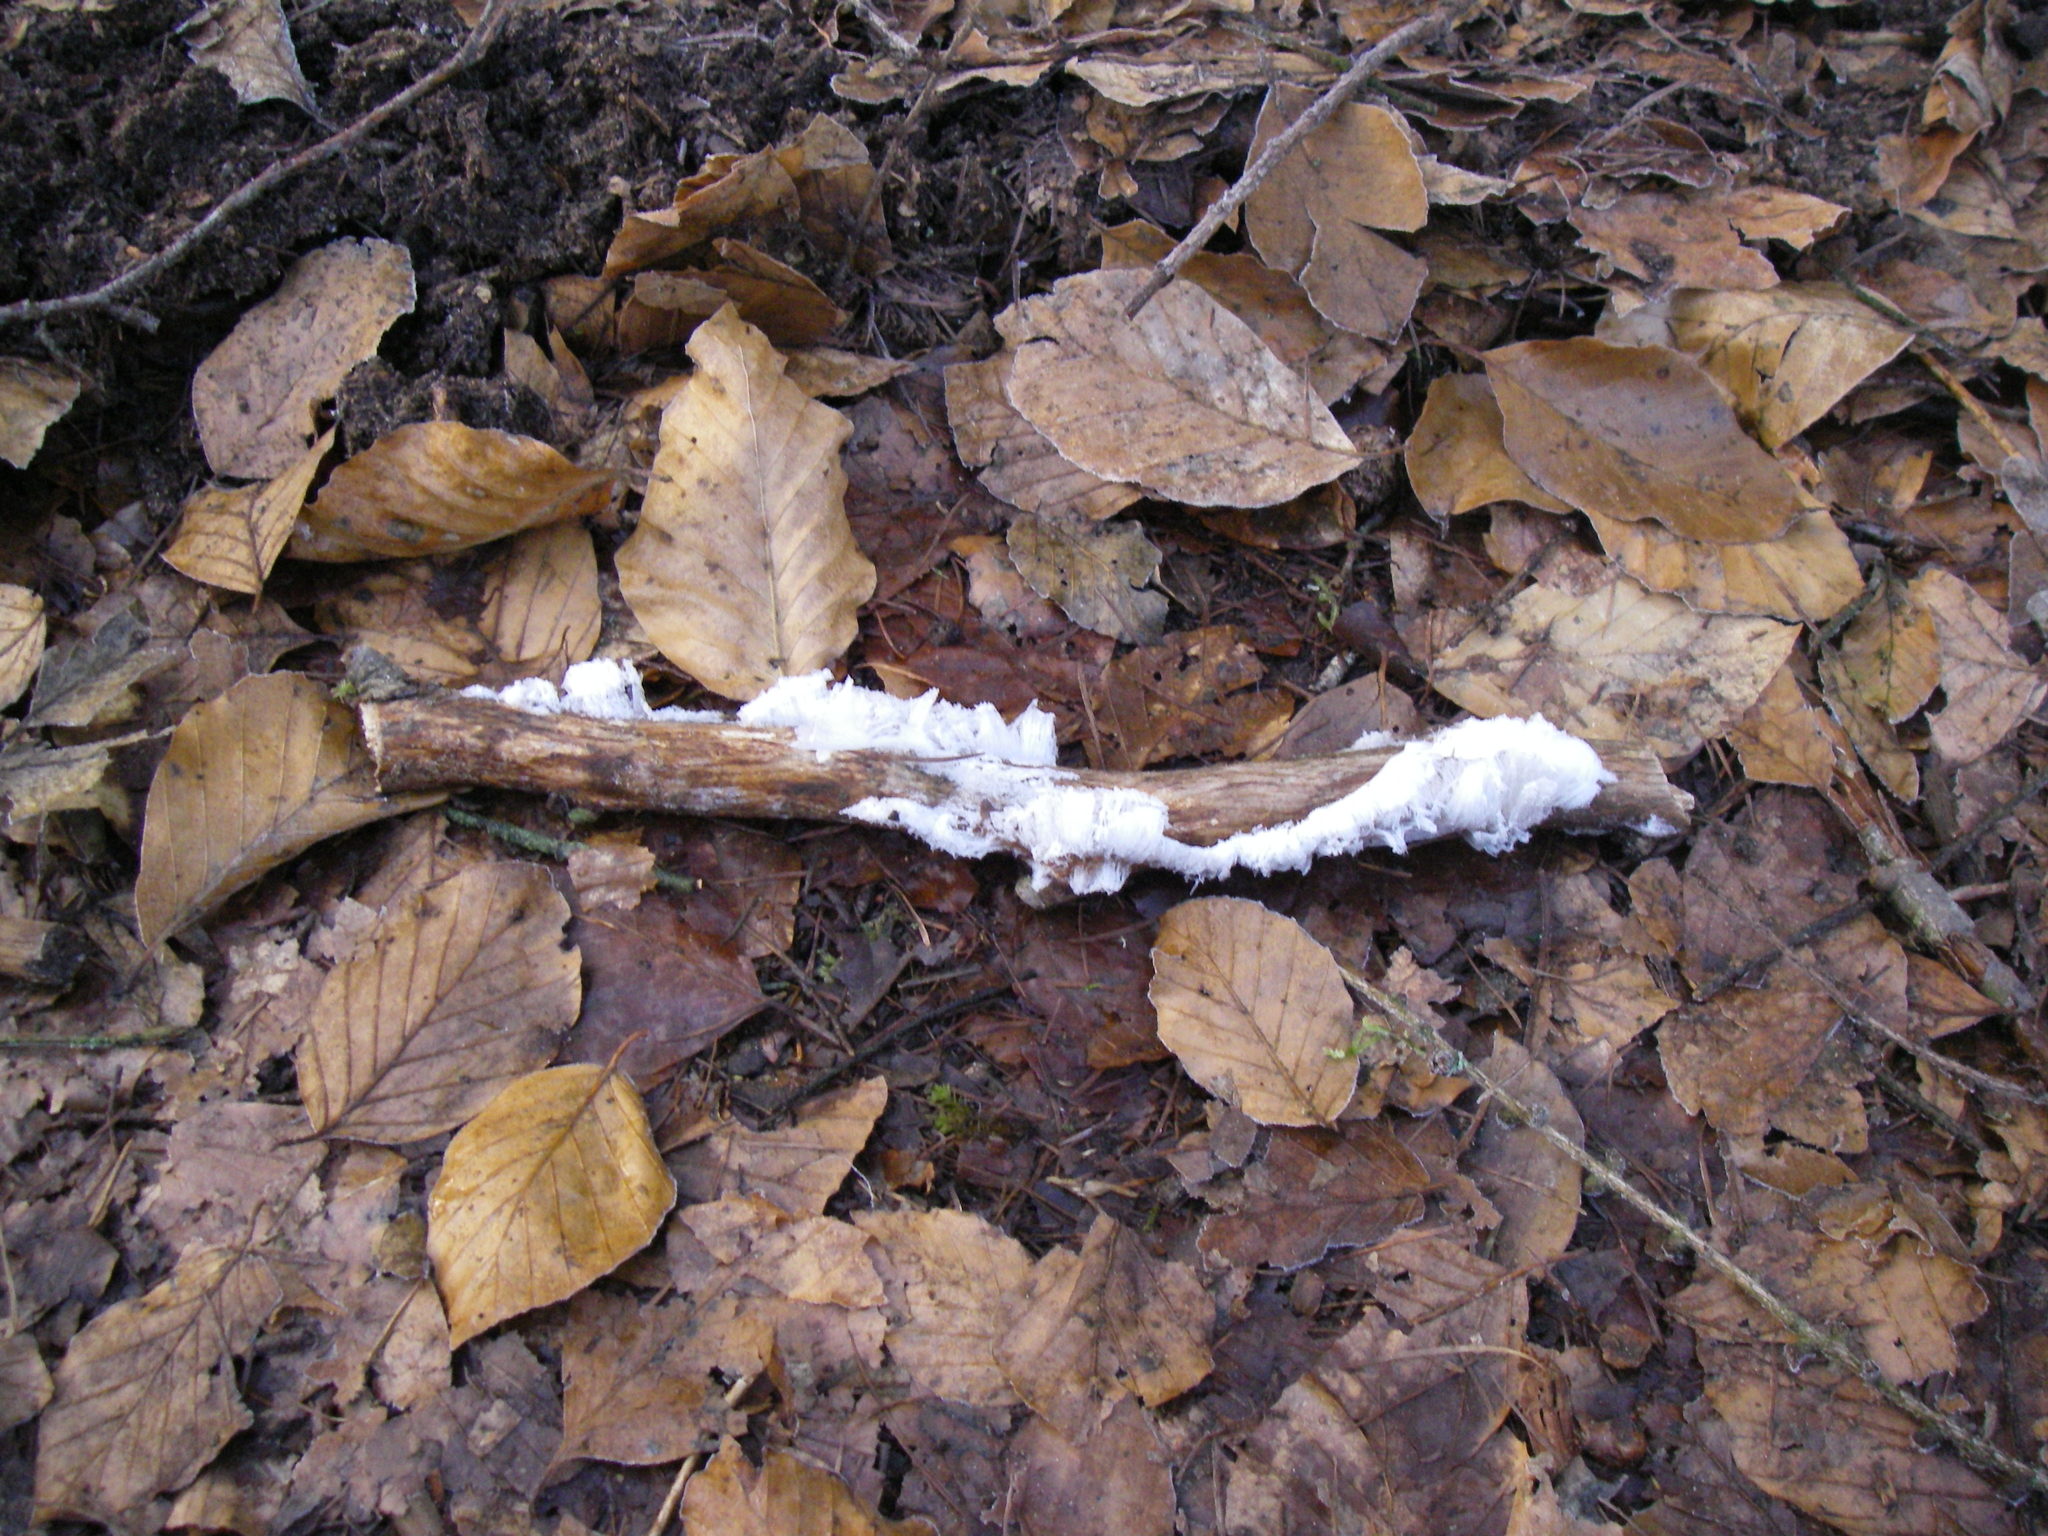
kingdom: Fungi
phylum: Basidiomycota
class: Agaricomycetes
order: Auriculariales
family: Auriculariaceae
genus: Exidiopsis
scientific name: Exidiopsis effusa
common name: Hair ice crust
